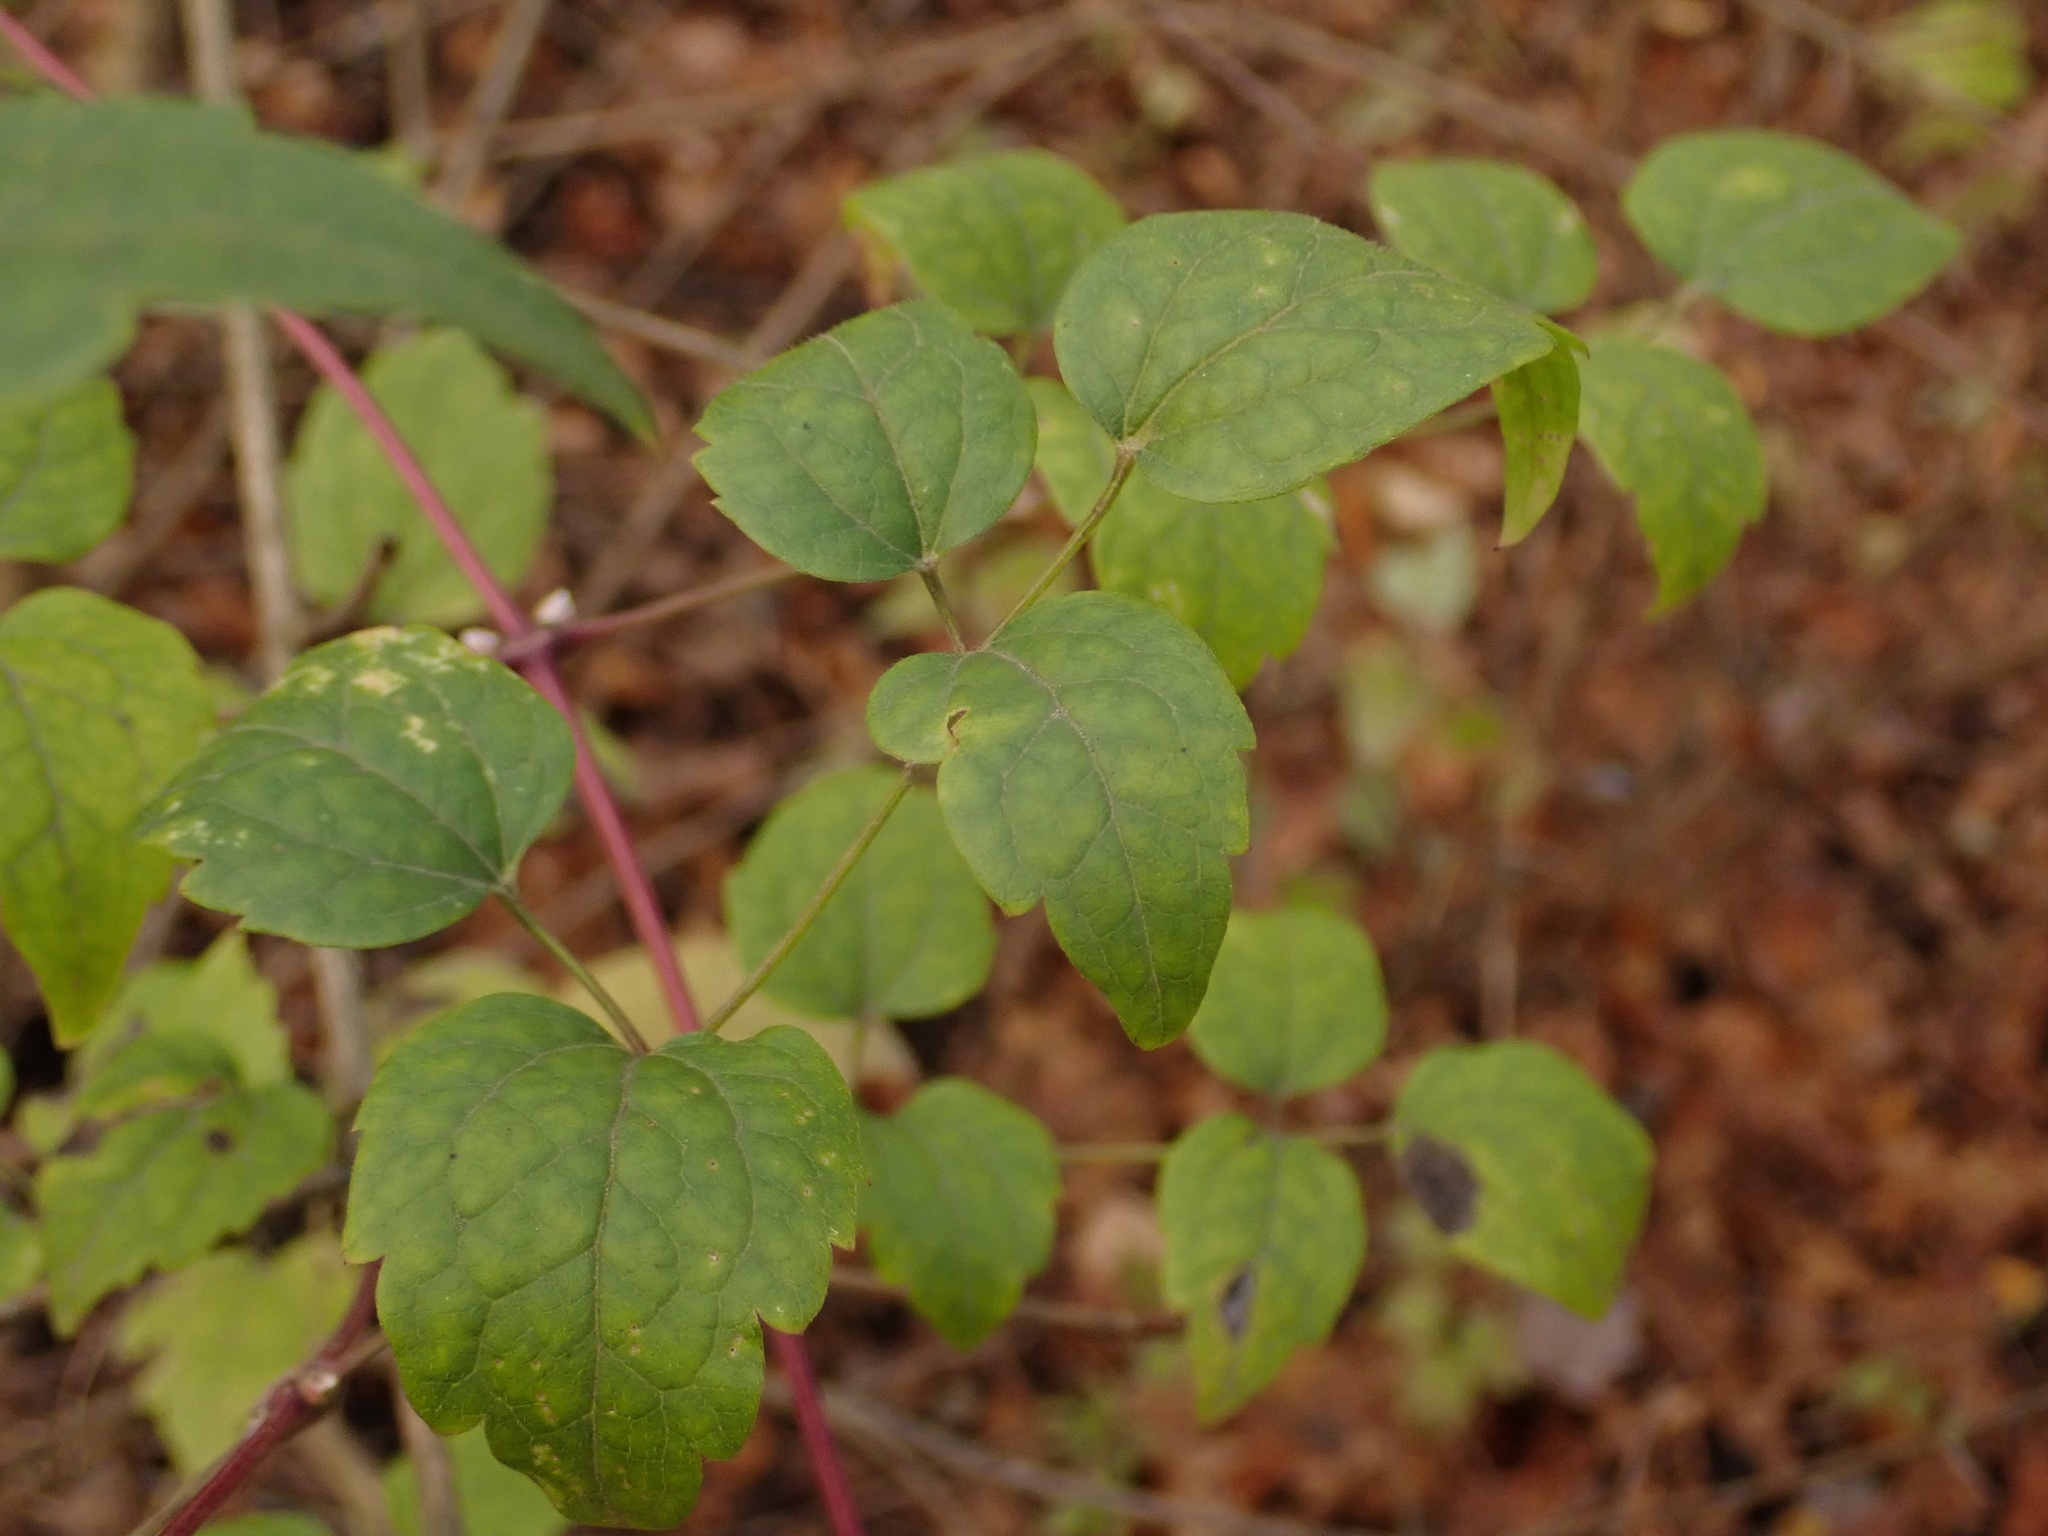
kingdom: Plantae
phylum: Tracheophyta
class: Magnoliopsida
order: Ranunculales
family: Ranunculaceae
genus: Clematis
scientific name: Clematis vitalba
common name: Evergreen clematis
